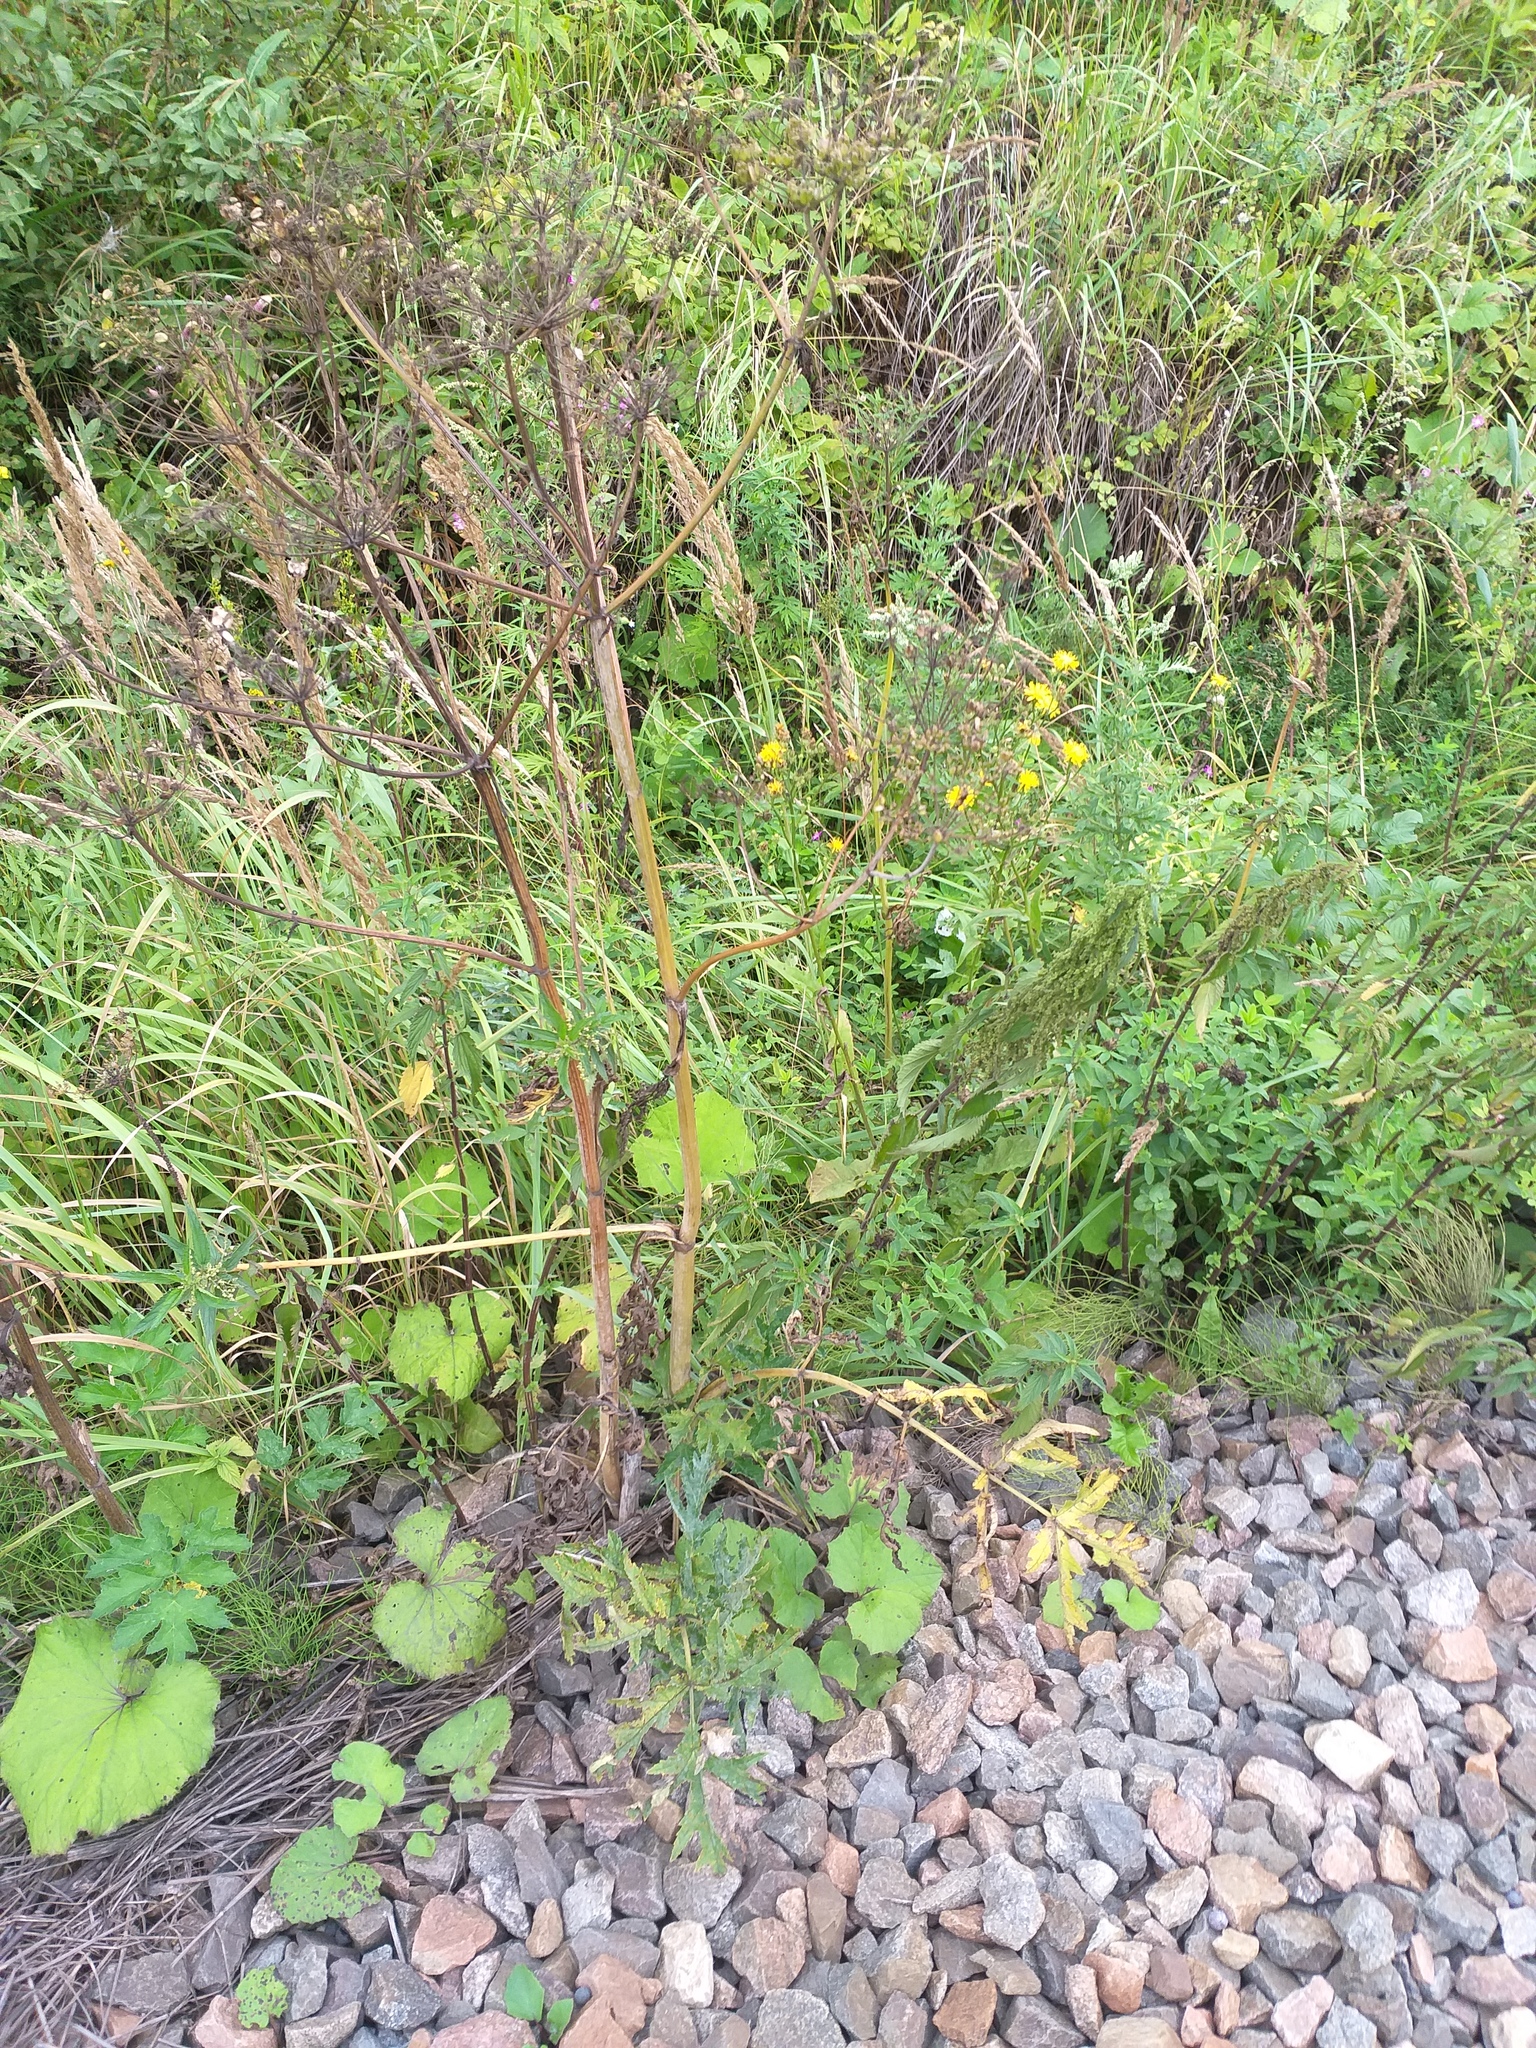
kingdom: Plantae
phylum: Tracheophyta
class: Magnoliopsida
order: Apiales
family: Apiaceae
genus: Heracleum
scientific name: Heracleum sphondylium
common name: Hogweed
